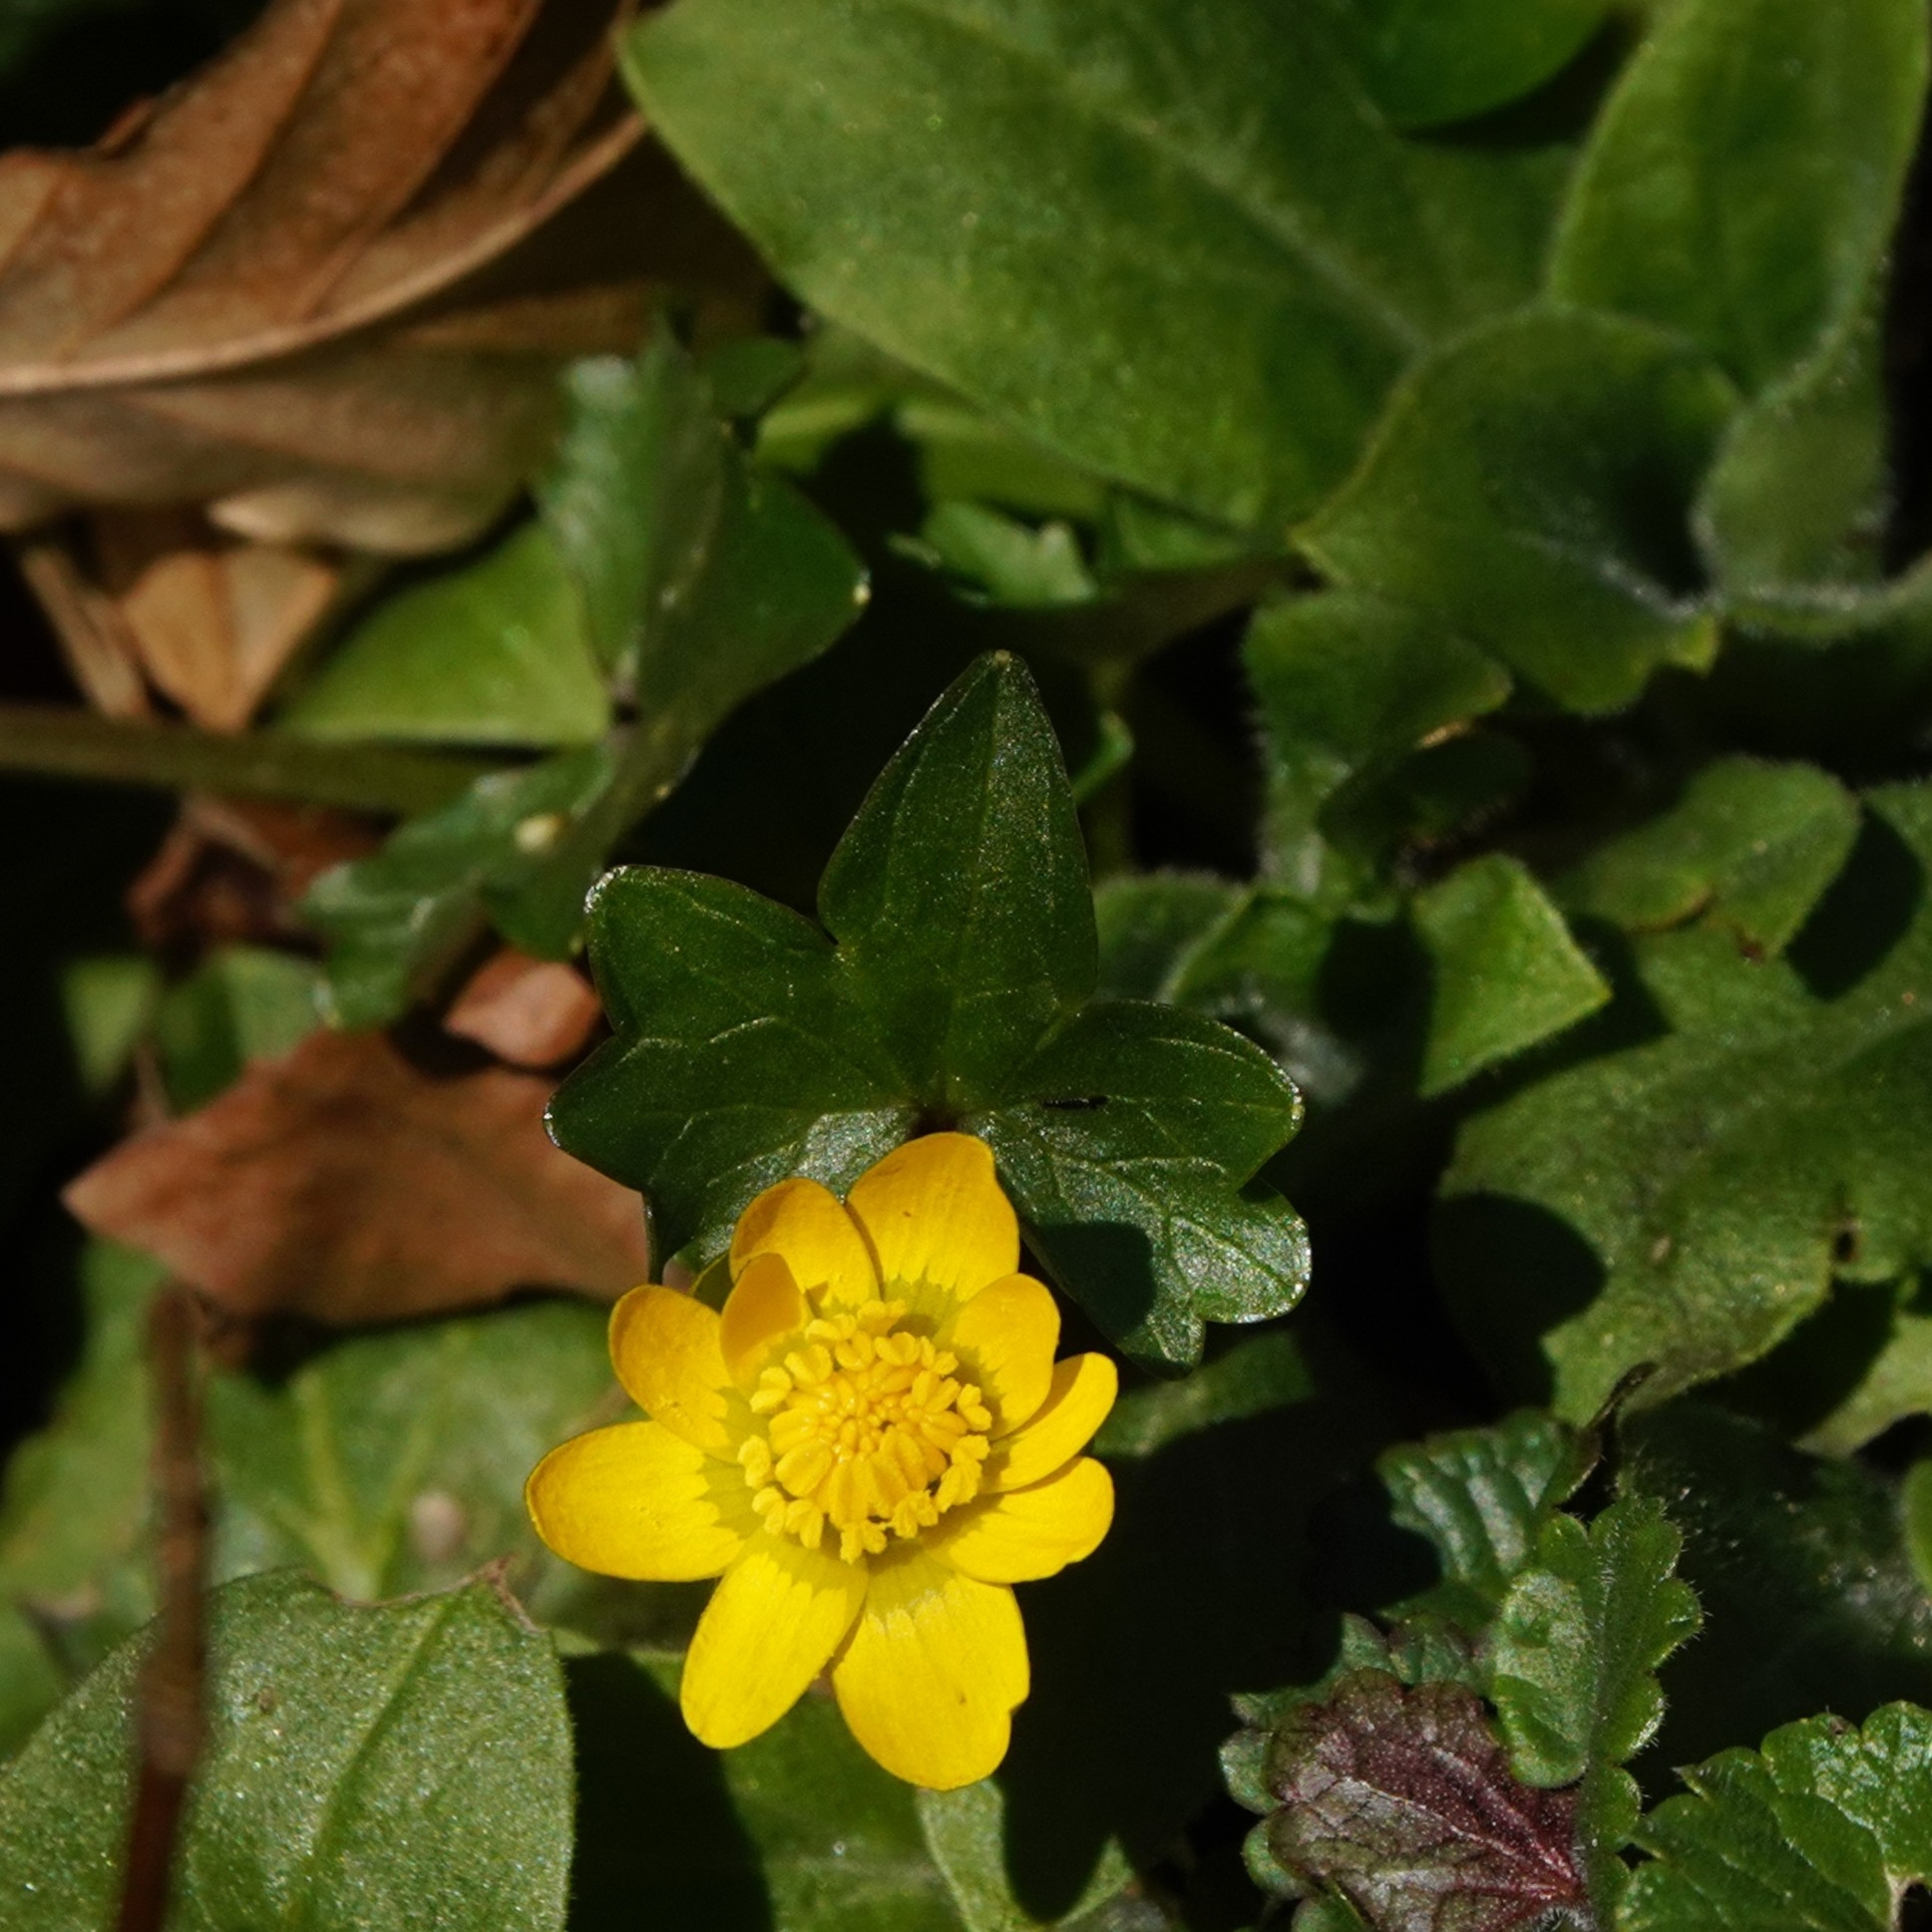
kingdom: Plantae
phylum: Tracheophyta
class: Magnoliopsida
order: Ranunculales
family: Ranunculaceae
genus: Ficaria
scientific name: Ficaria verna
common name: Lesser celandine
